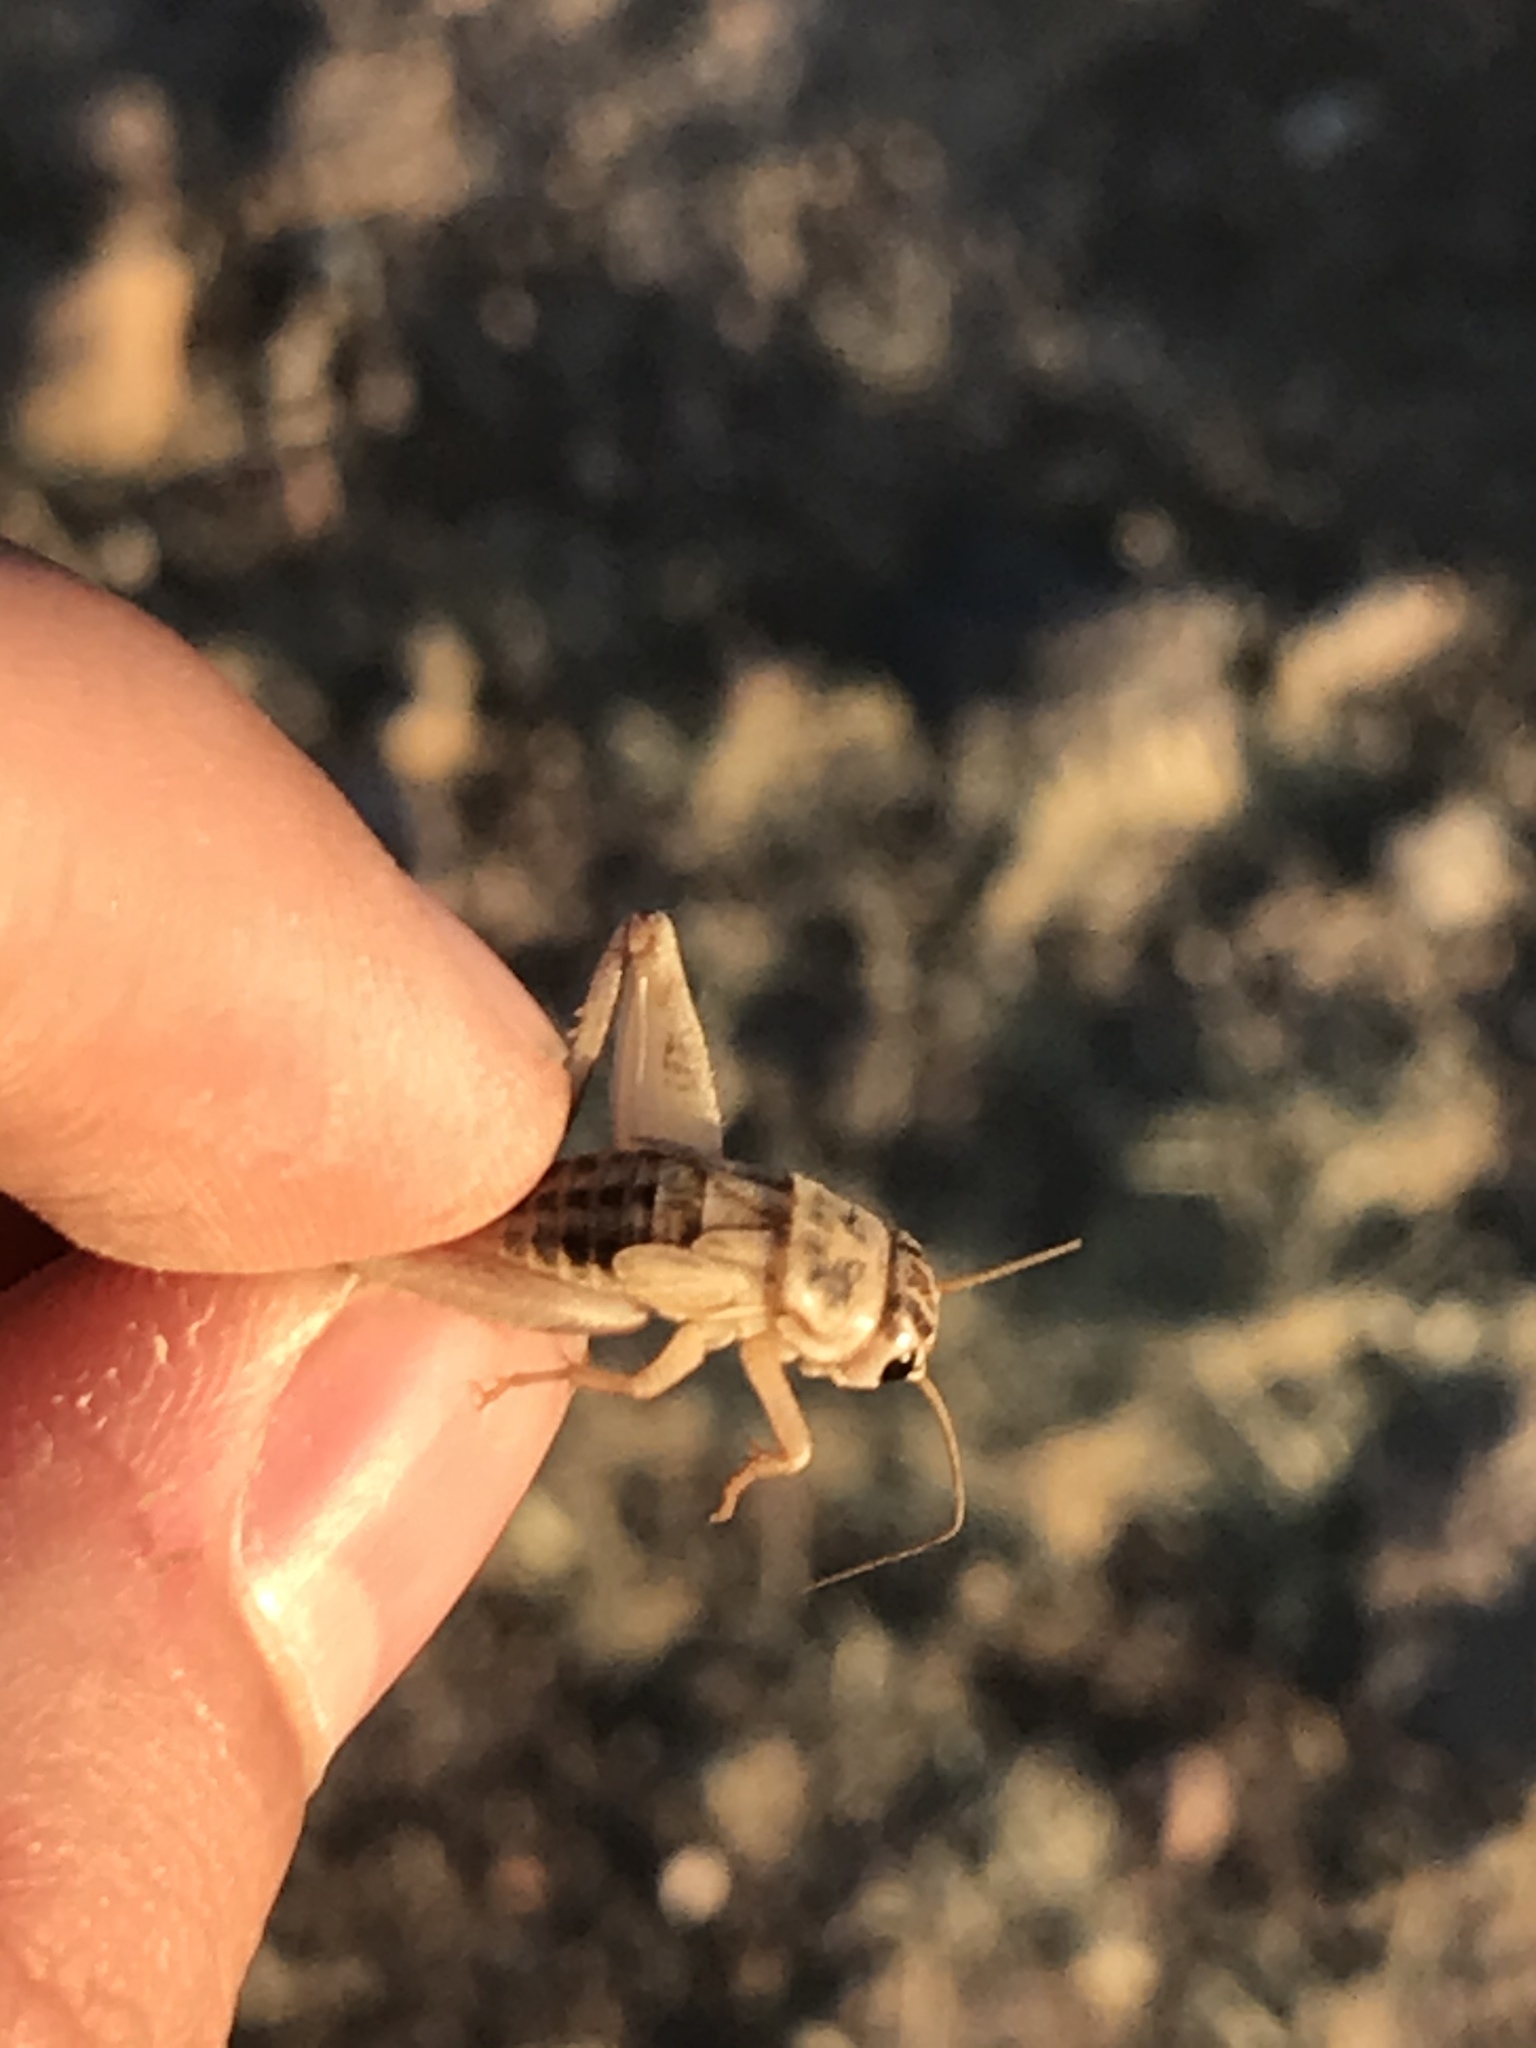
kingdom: Animalia
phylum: Arthropoda
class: Insecta
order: Orthoptera
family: Gryllidae
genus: Gryllodes
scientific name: Gryllodes sigillatus
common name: Tropical house cricket
